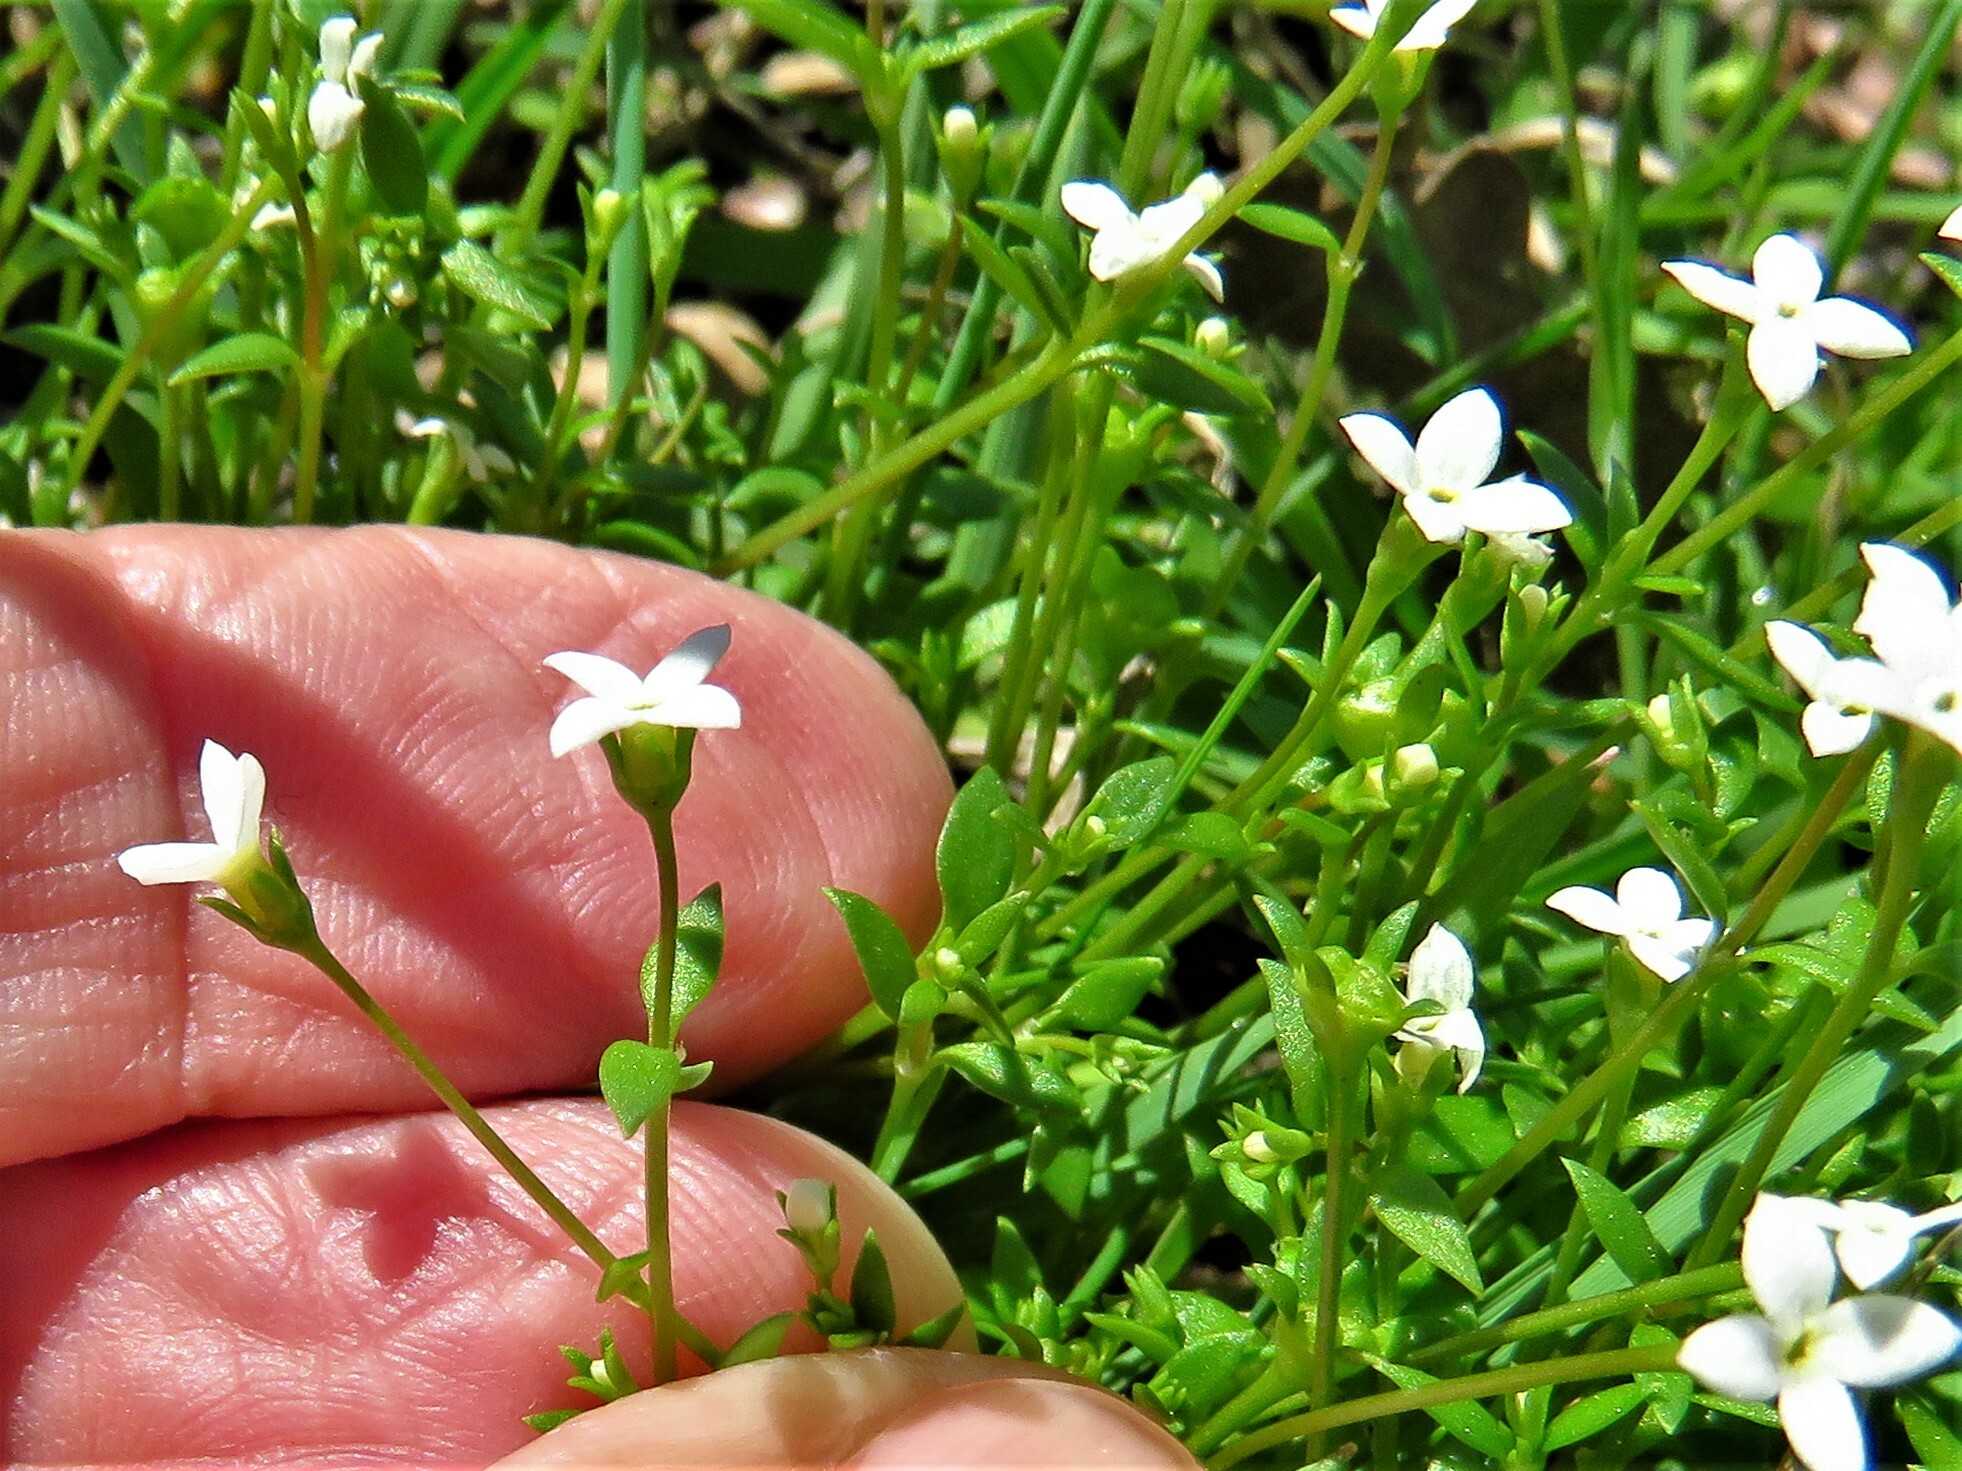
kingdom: Plantae
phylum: Tracheophyta
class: Magnoliopsida
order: Gentianales
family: Rubiaceae
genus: Houstonia
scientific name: Houstonia micrantha
